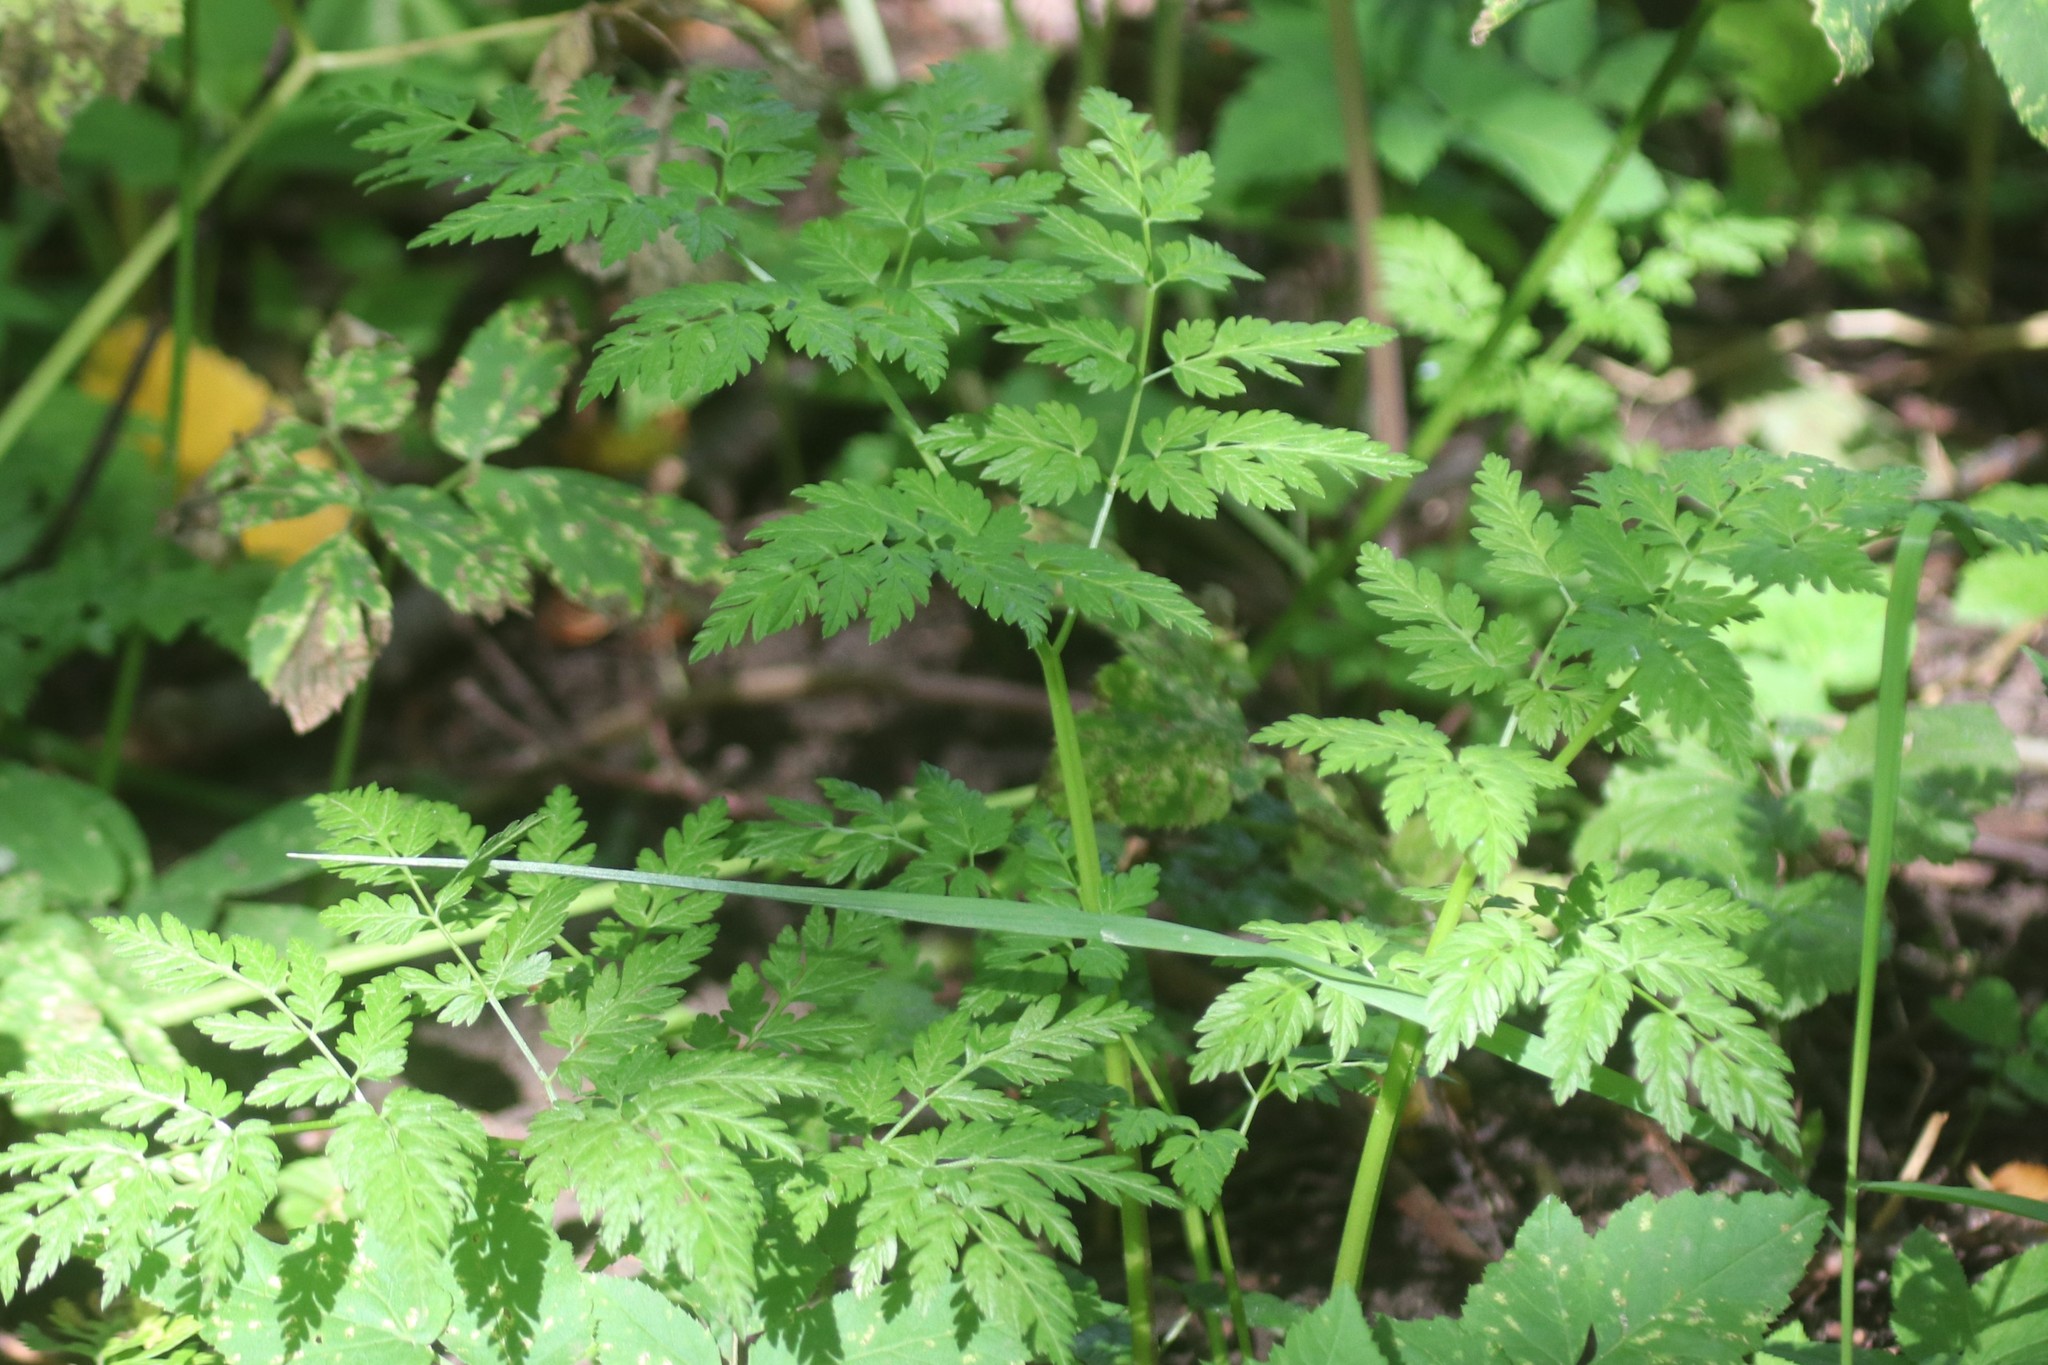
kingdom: Plantae
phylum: Tracheophyta
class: Magnoliopsida
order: Apiales
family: Apiaceae
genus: Anthriscus
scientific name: Anthriscus sylvestris
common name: Cow parsley
